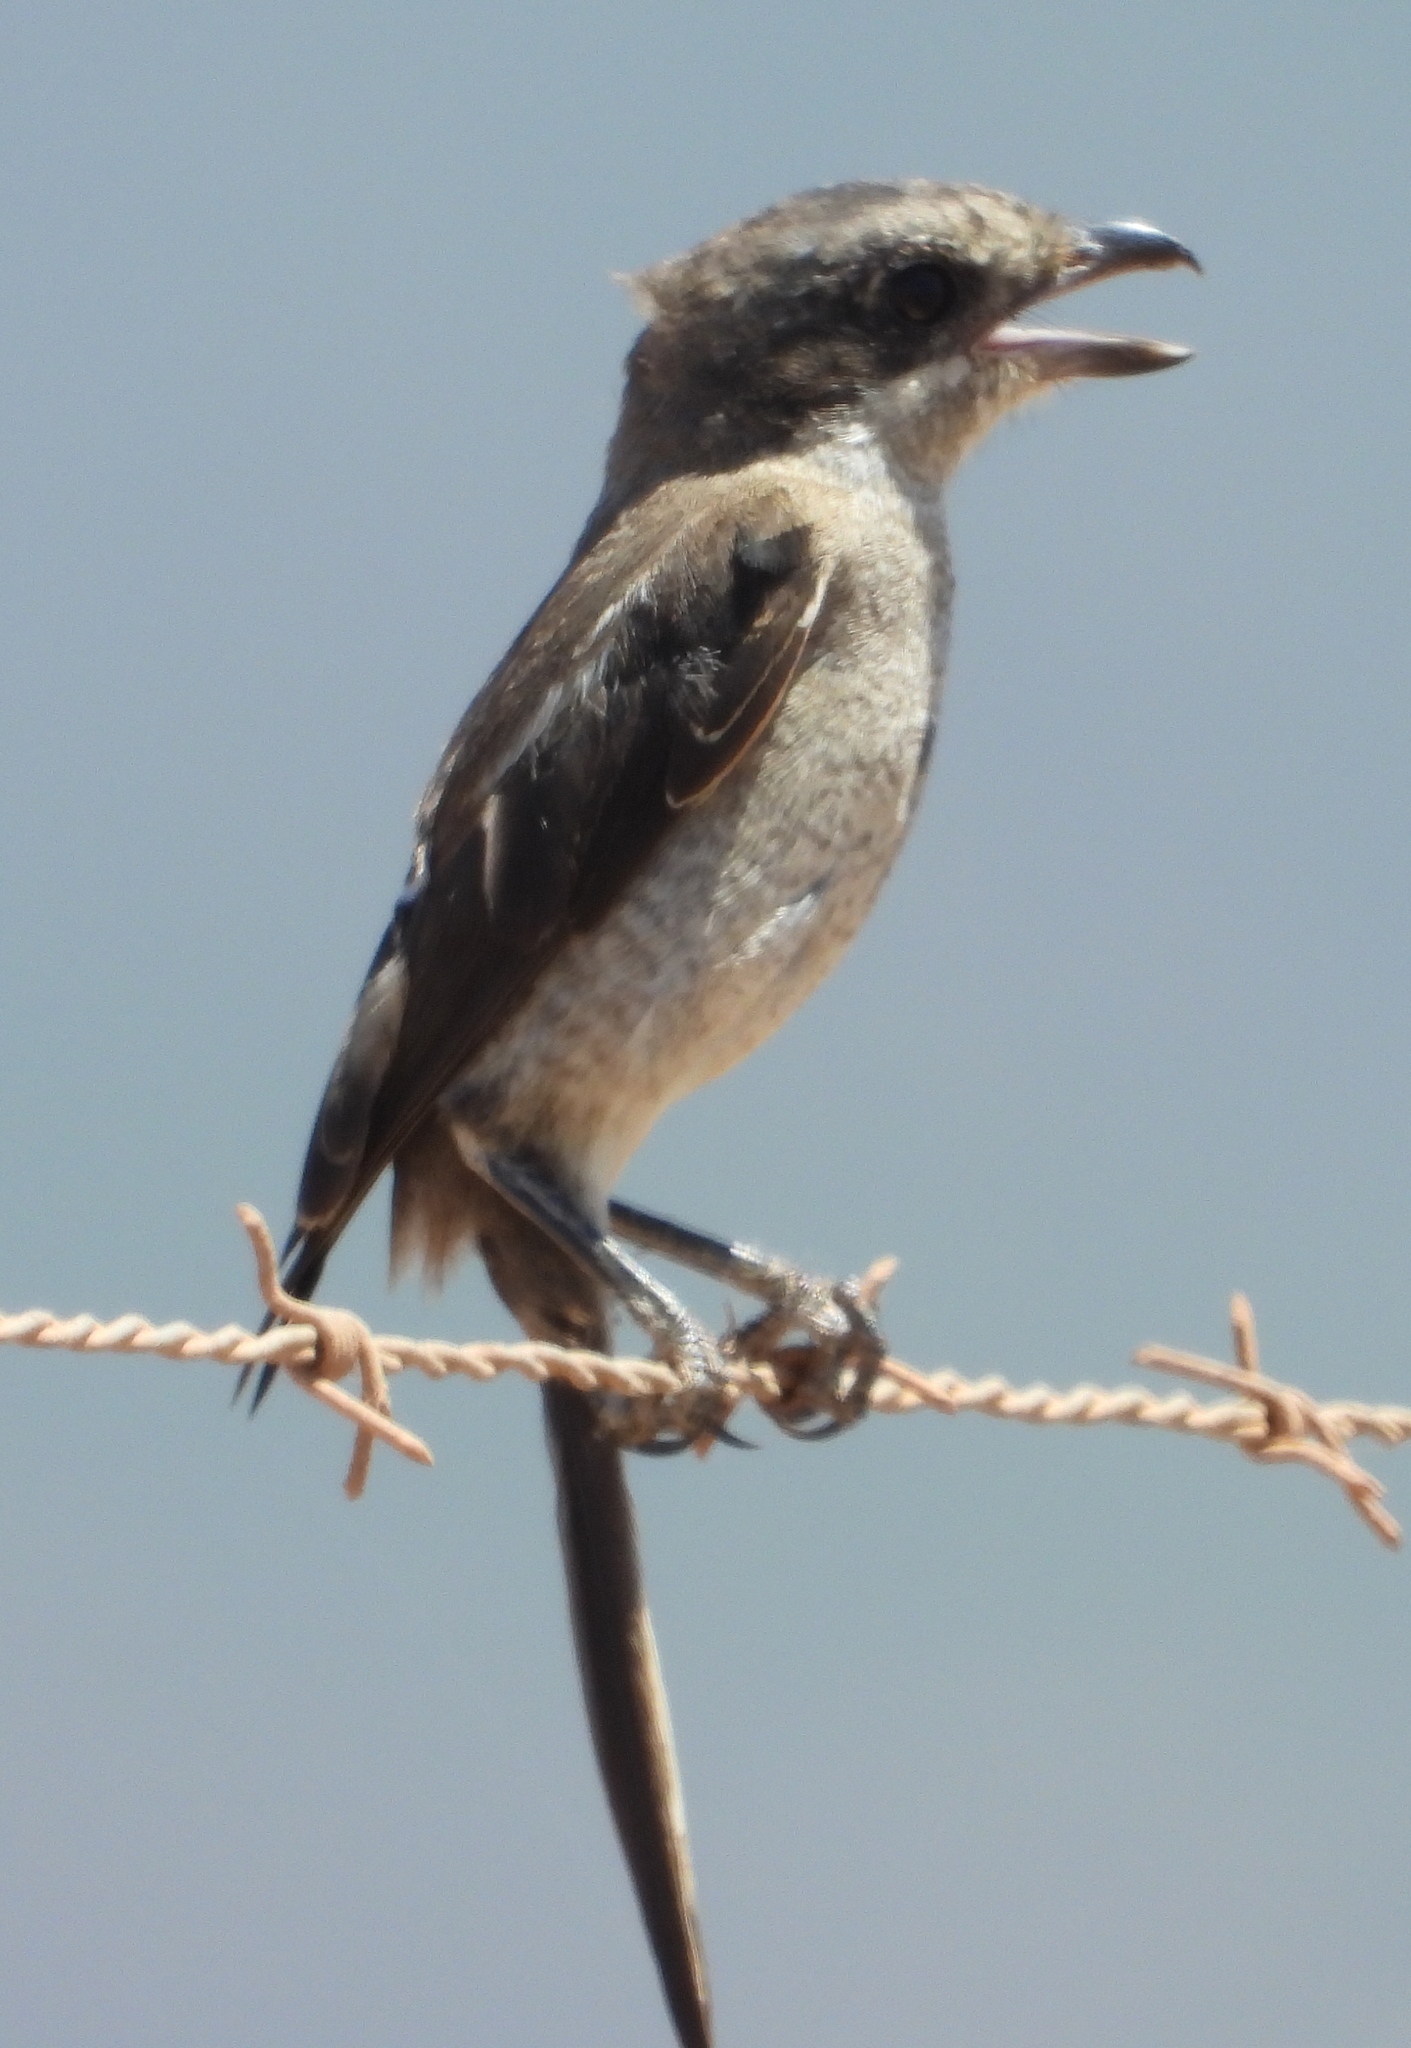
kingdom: Animalia
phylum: Chordata
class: Aves
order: Passeriformes
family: Laniidae
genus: Lanius
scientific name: Lanius collaris
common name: Southern fiscal
